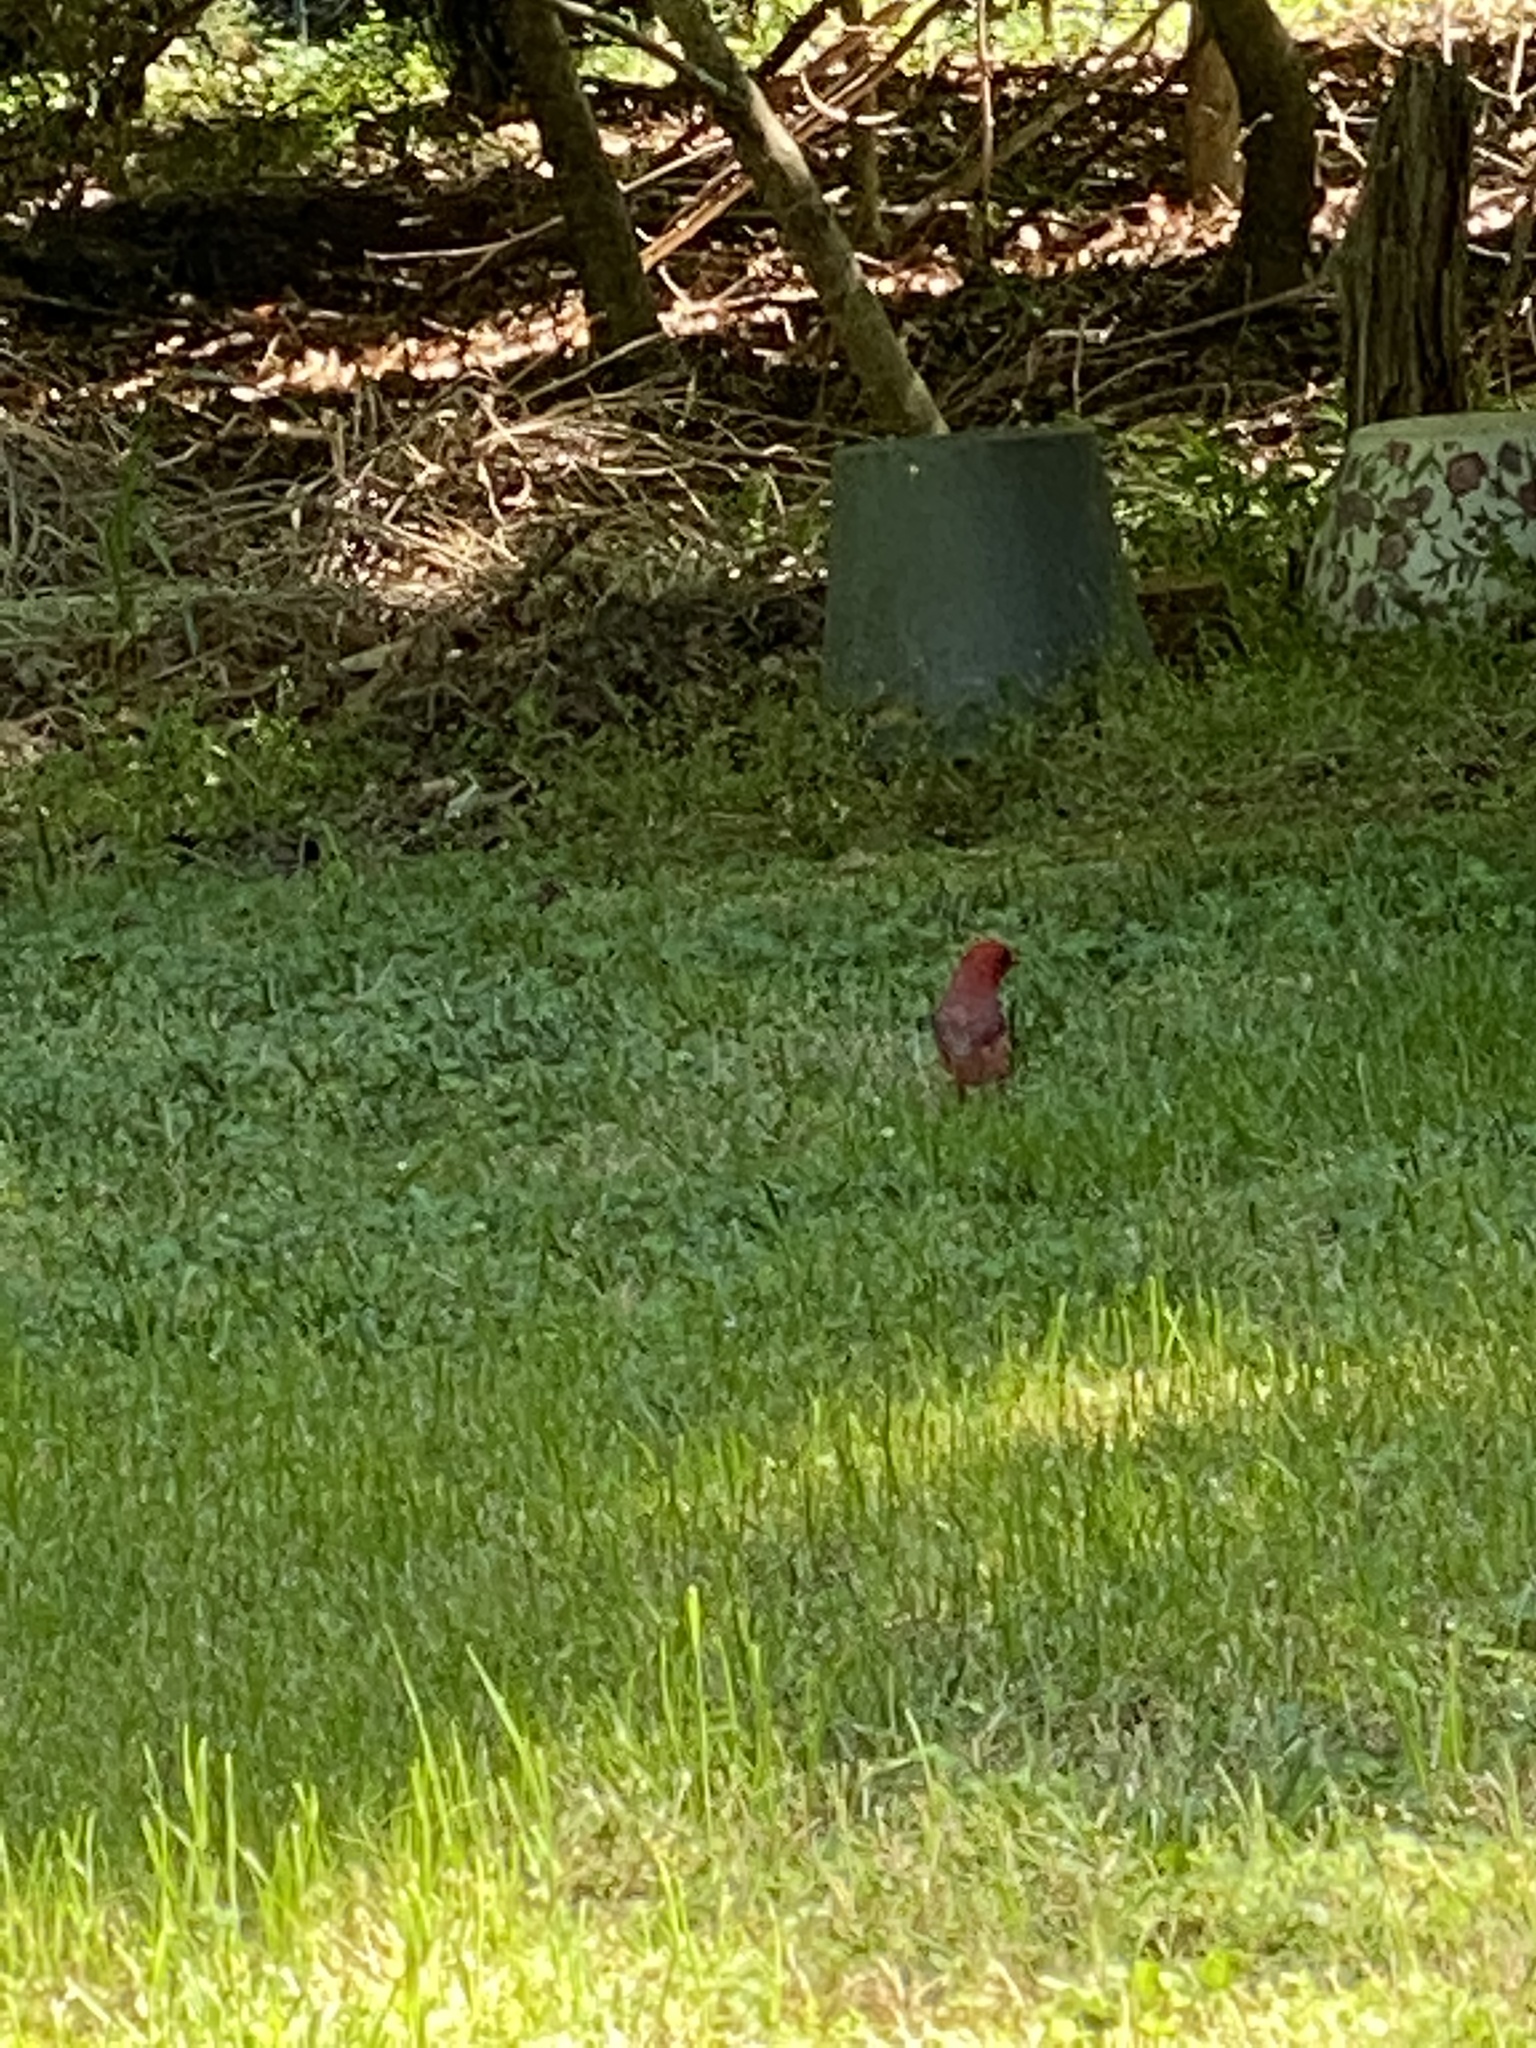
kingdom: Animalia
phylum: Chordata
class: Aves
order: Passeriformes
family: Cardinalidae
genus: Cardinalis
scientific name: Cardinalis cardinalis
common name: Northern cardinal
